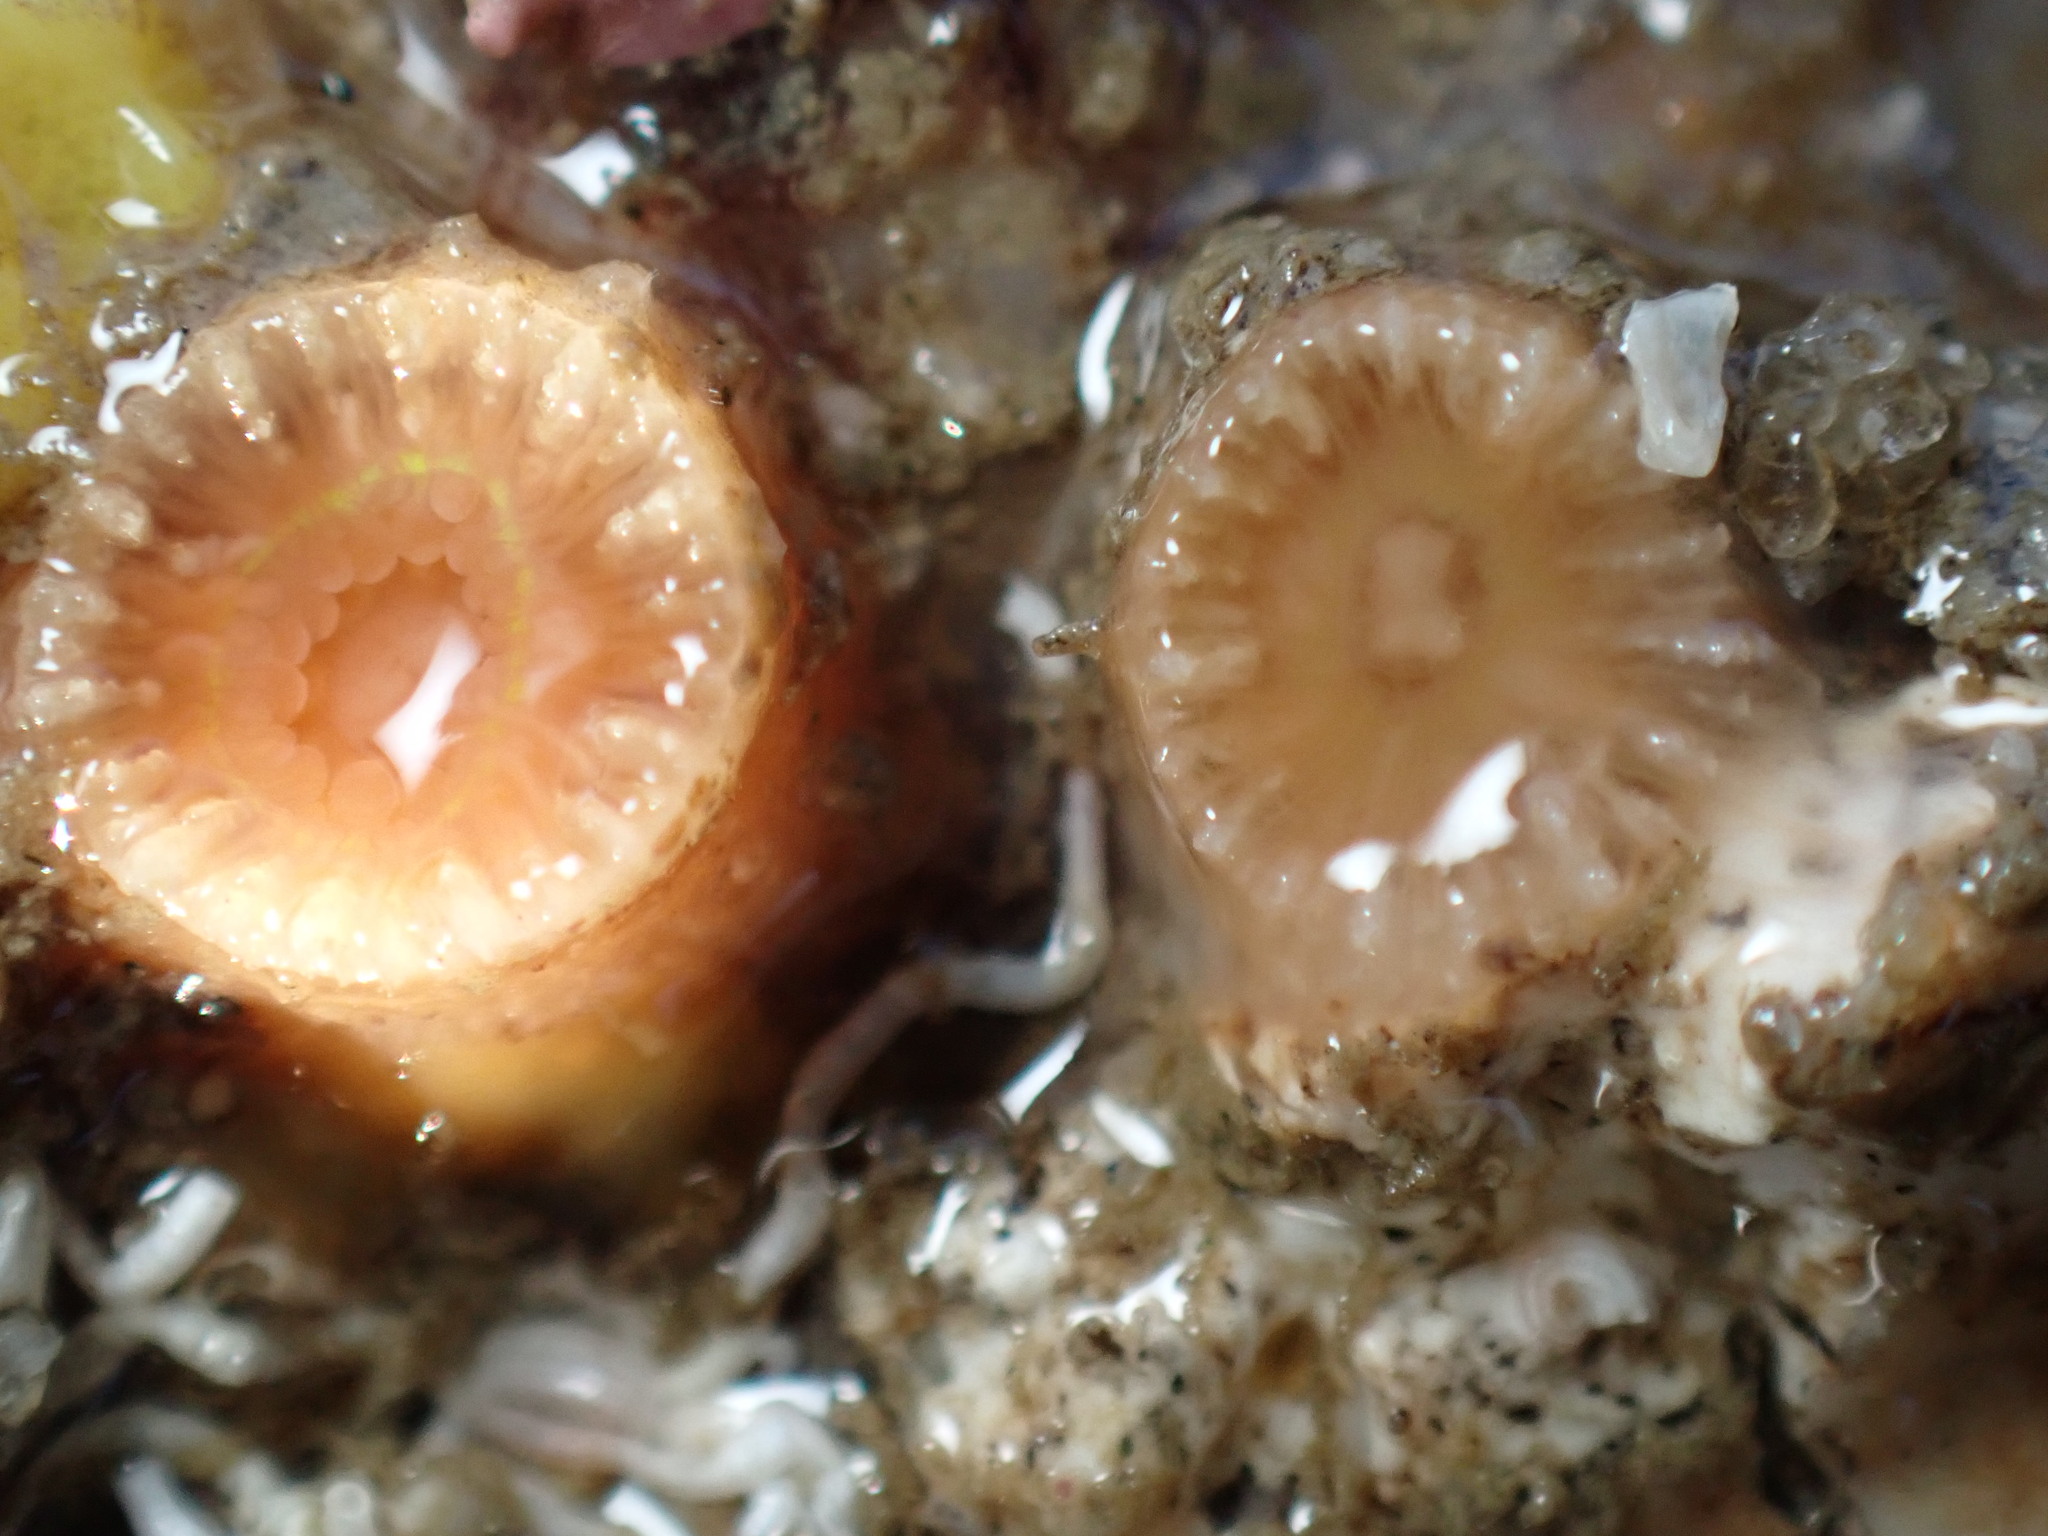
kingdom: Animalia
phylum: Cnidaria
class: Anthozoa
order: Scleractinia
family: Astrangiidae
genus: Astrangia
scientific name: Astrangia haimei
